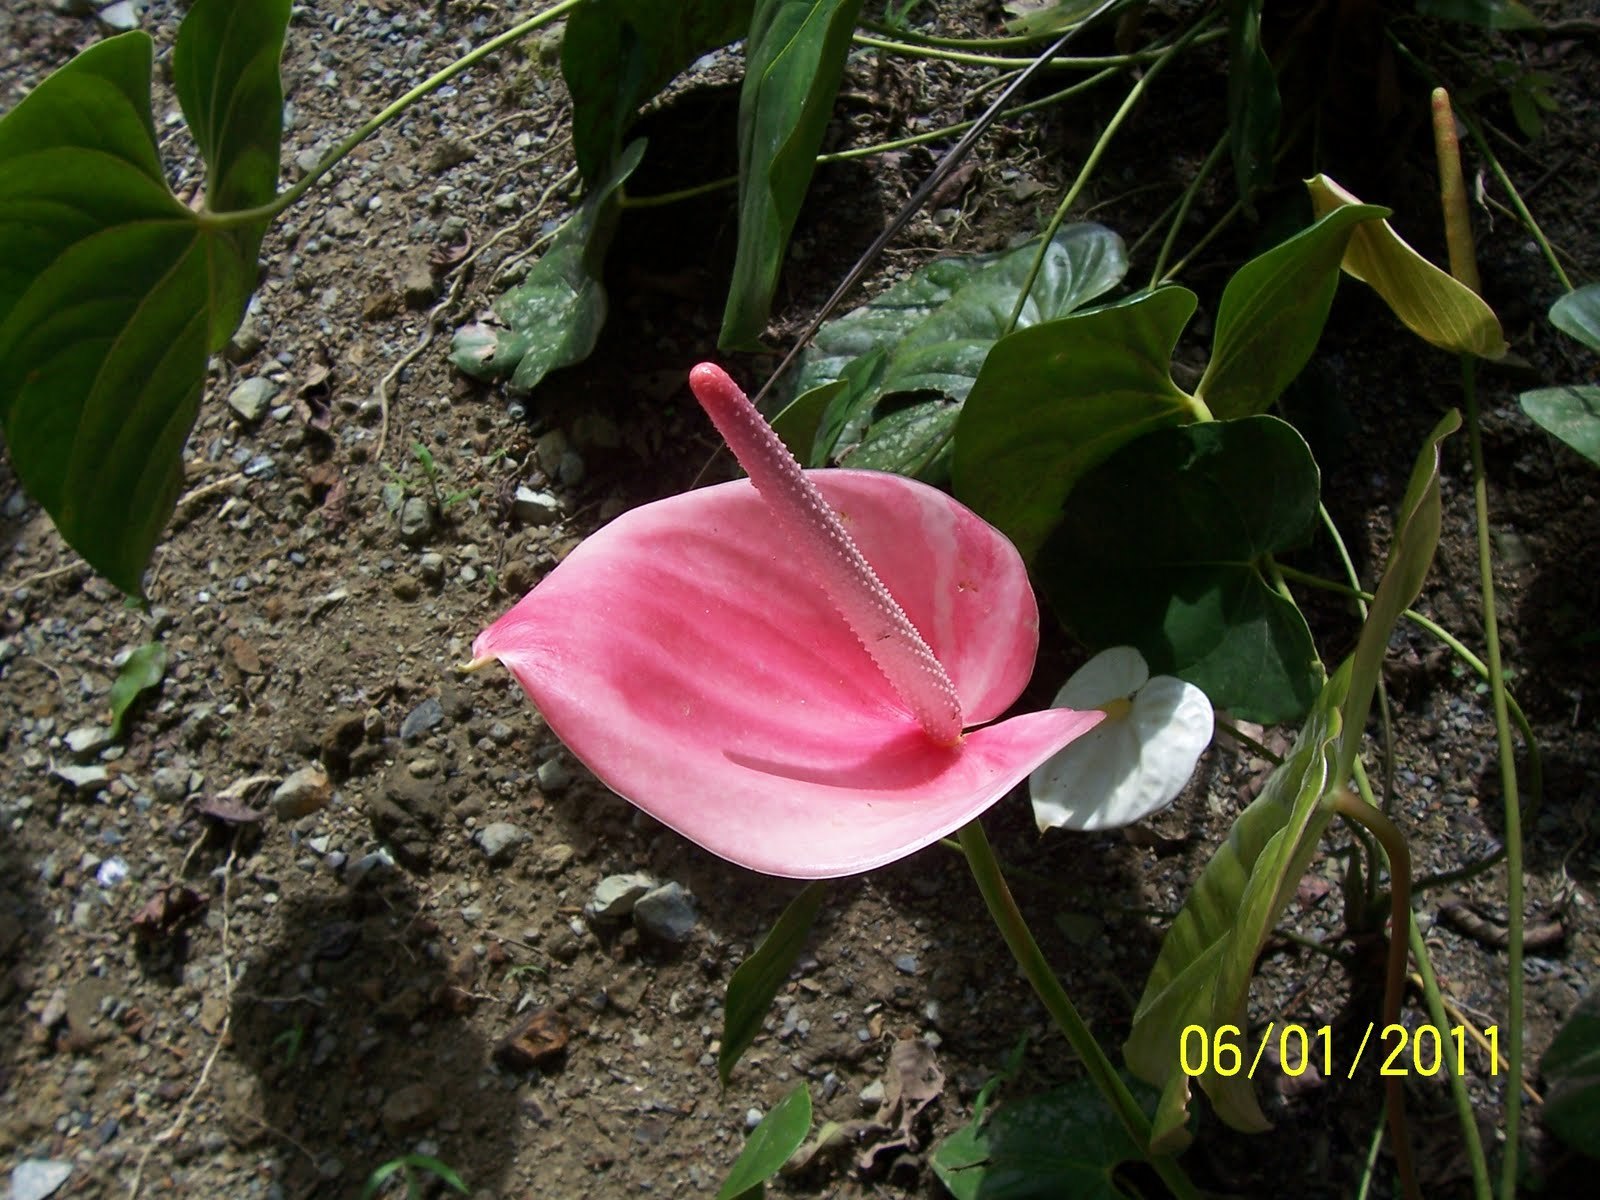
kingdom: Plantae
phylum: Tracheophyta
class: Liliopsida
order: Alismatales
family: Araceae
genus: Anthurium
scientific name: Anthurium andraeanum
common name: Flamingo-flower
